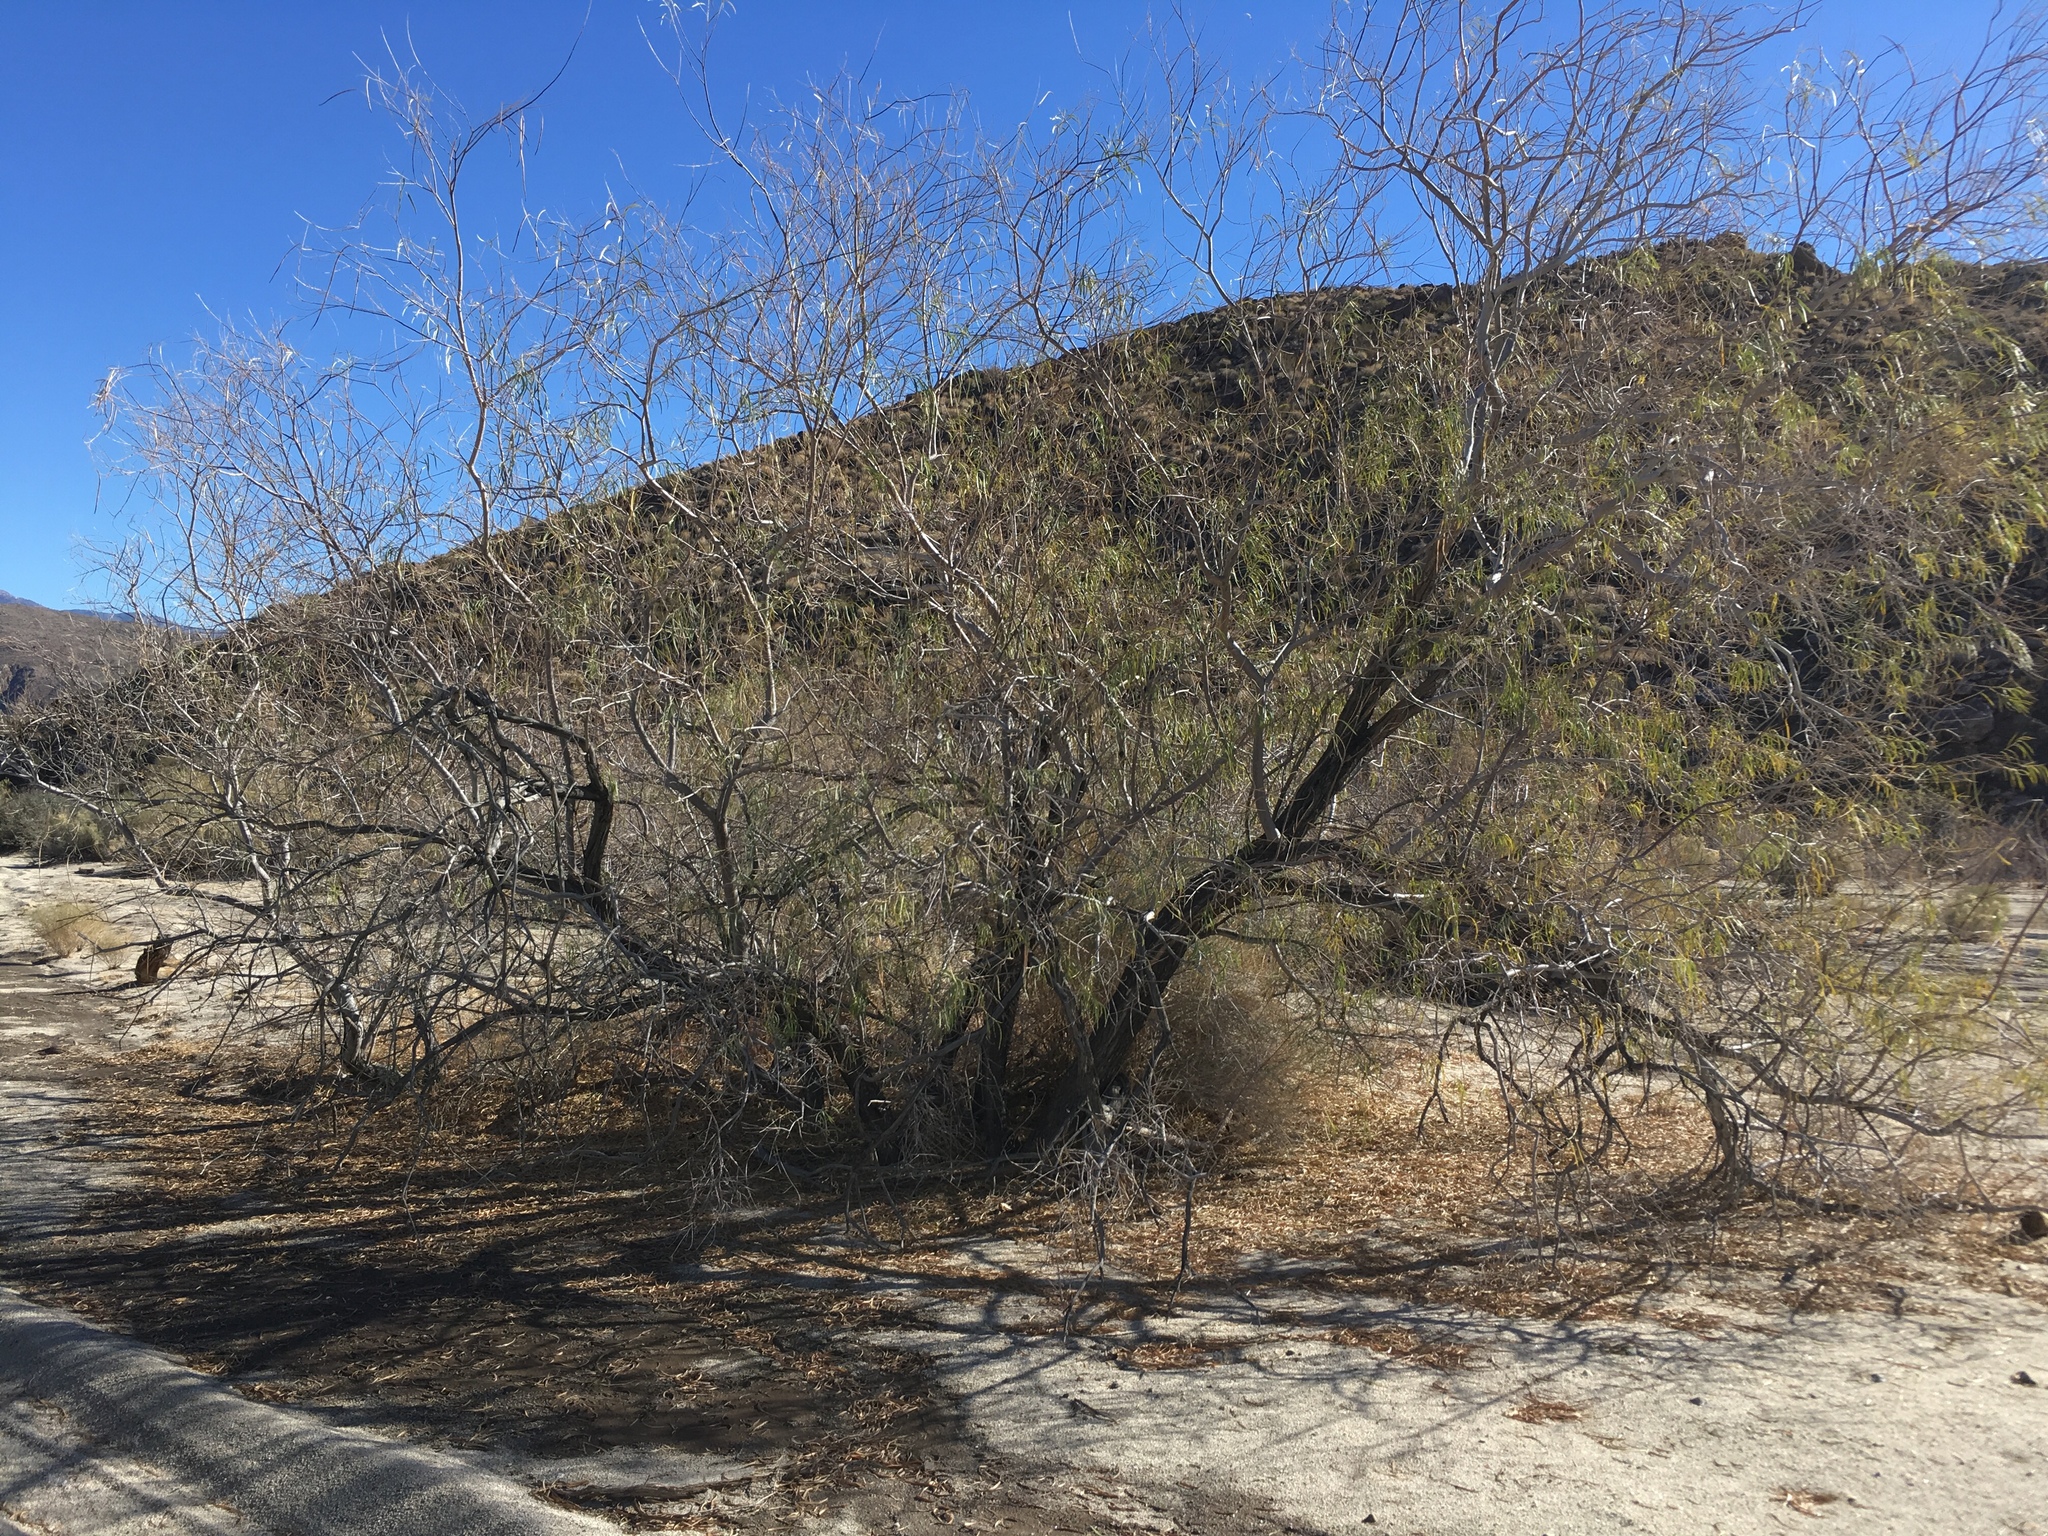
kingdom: Plantae
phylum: Tracheophyta
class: Magnoliopsida
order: Lamiales
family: Bignoniaceae
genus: Chilopsis
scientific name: Chilopsis linearis
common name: Desert-willow
